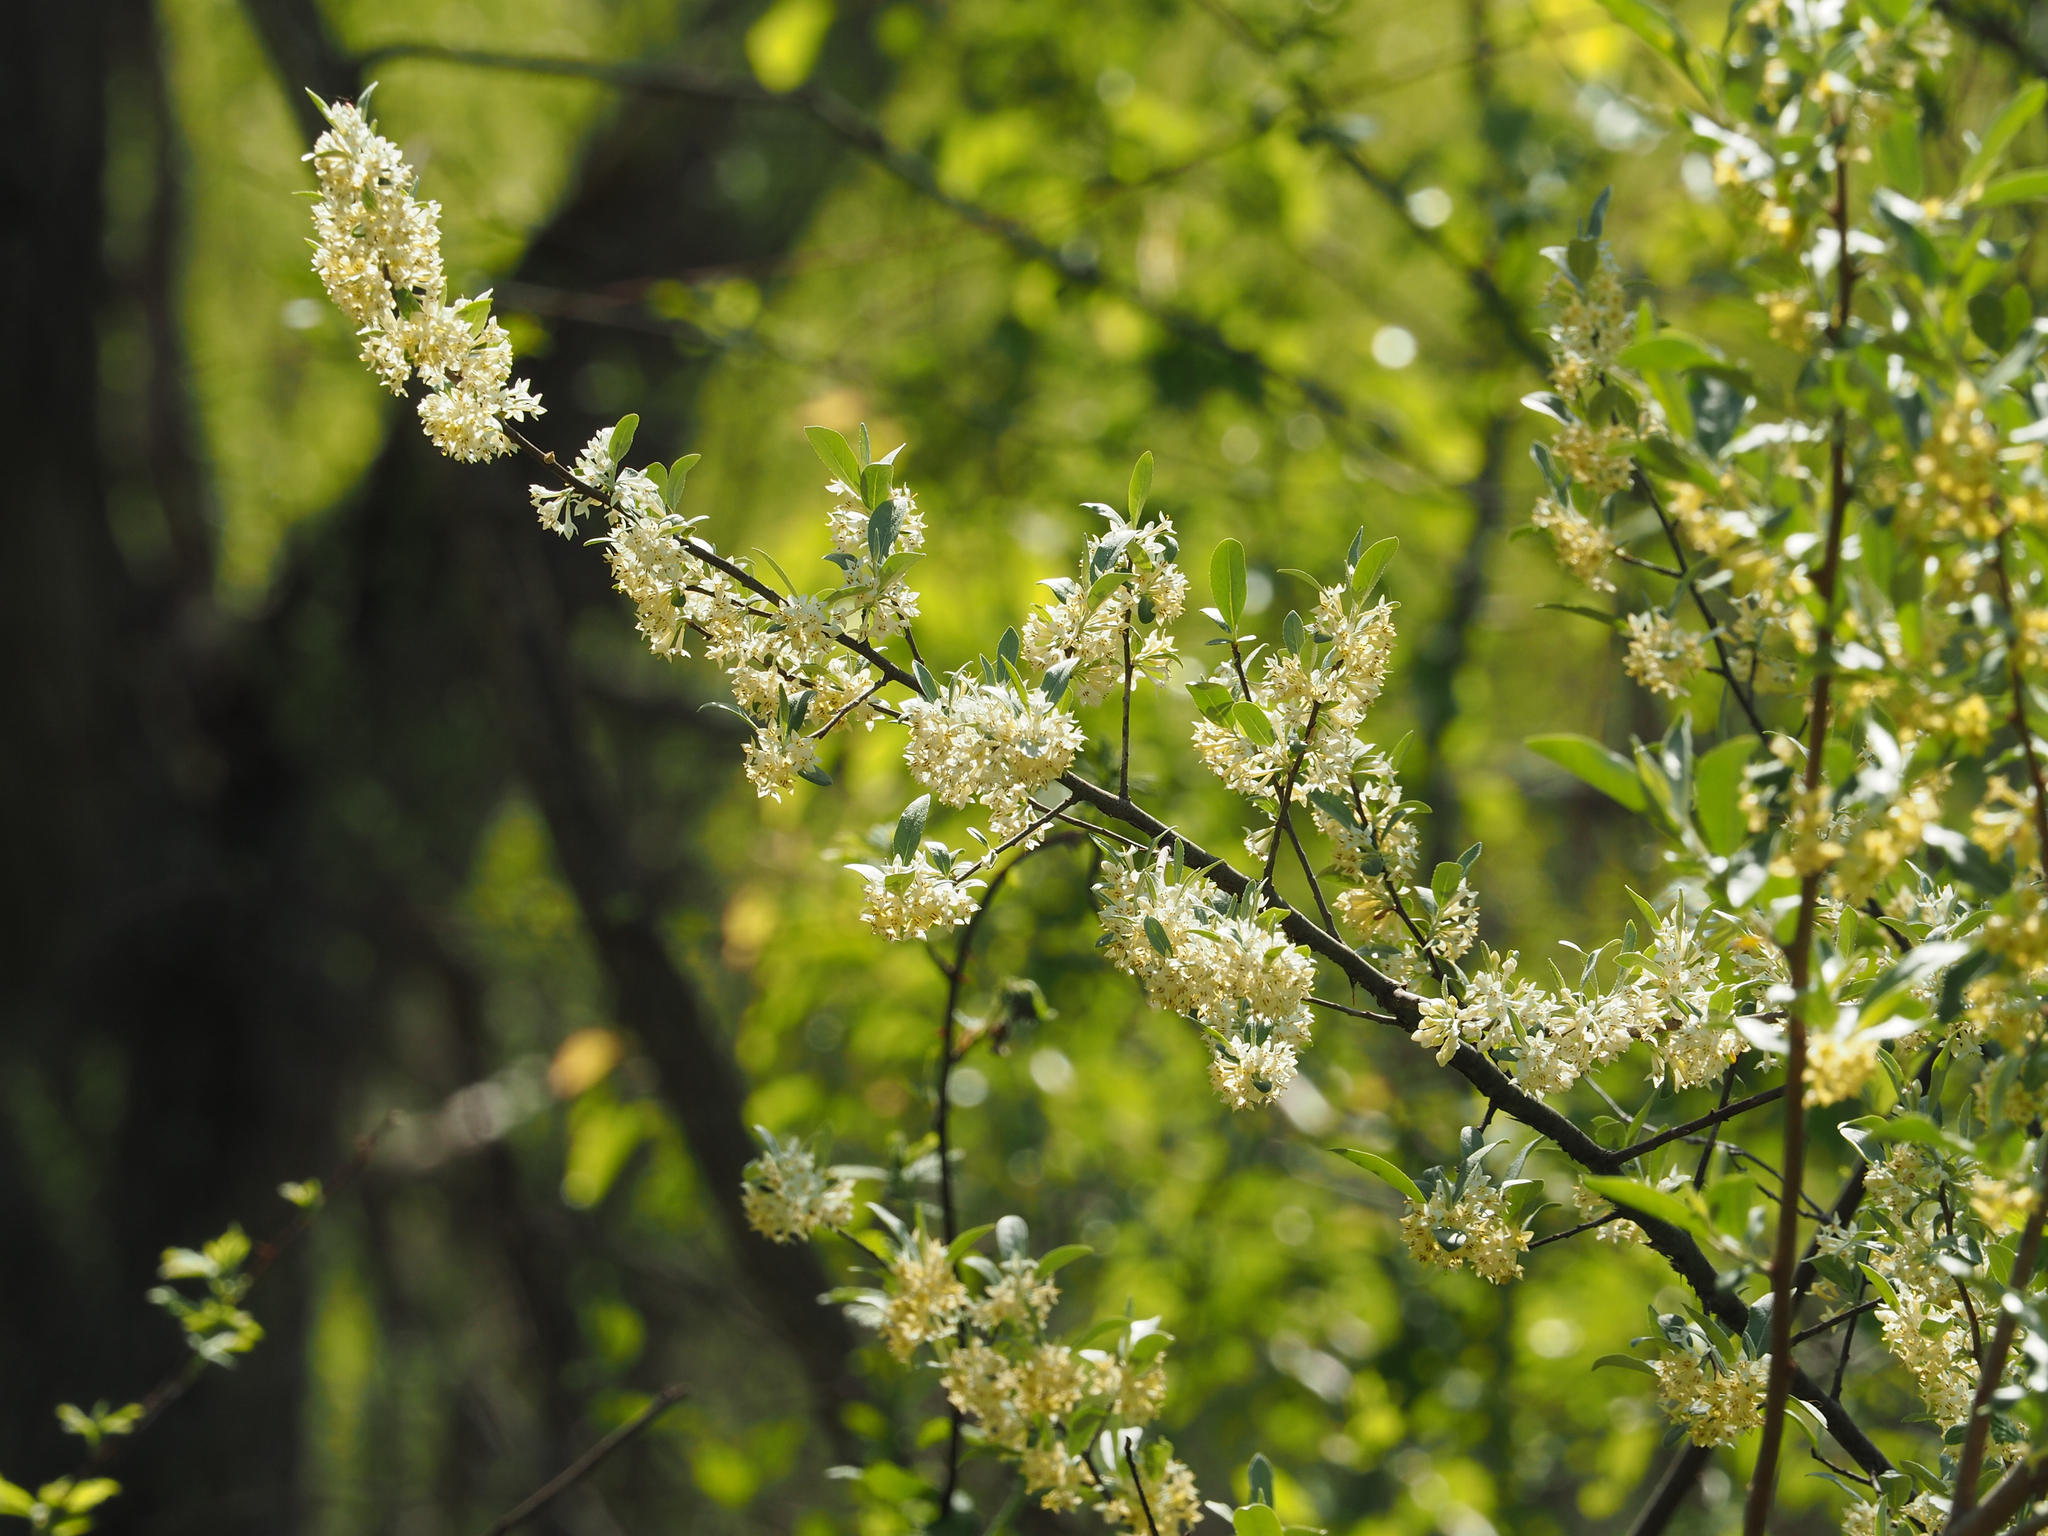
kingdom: Plantae
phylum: Tracheophyta
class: Magnoliopsida
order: Rosales
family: Elaeagnaceae
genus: Elaeagnus
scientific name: Elaeagnus umbellata
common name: Autumn olive
